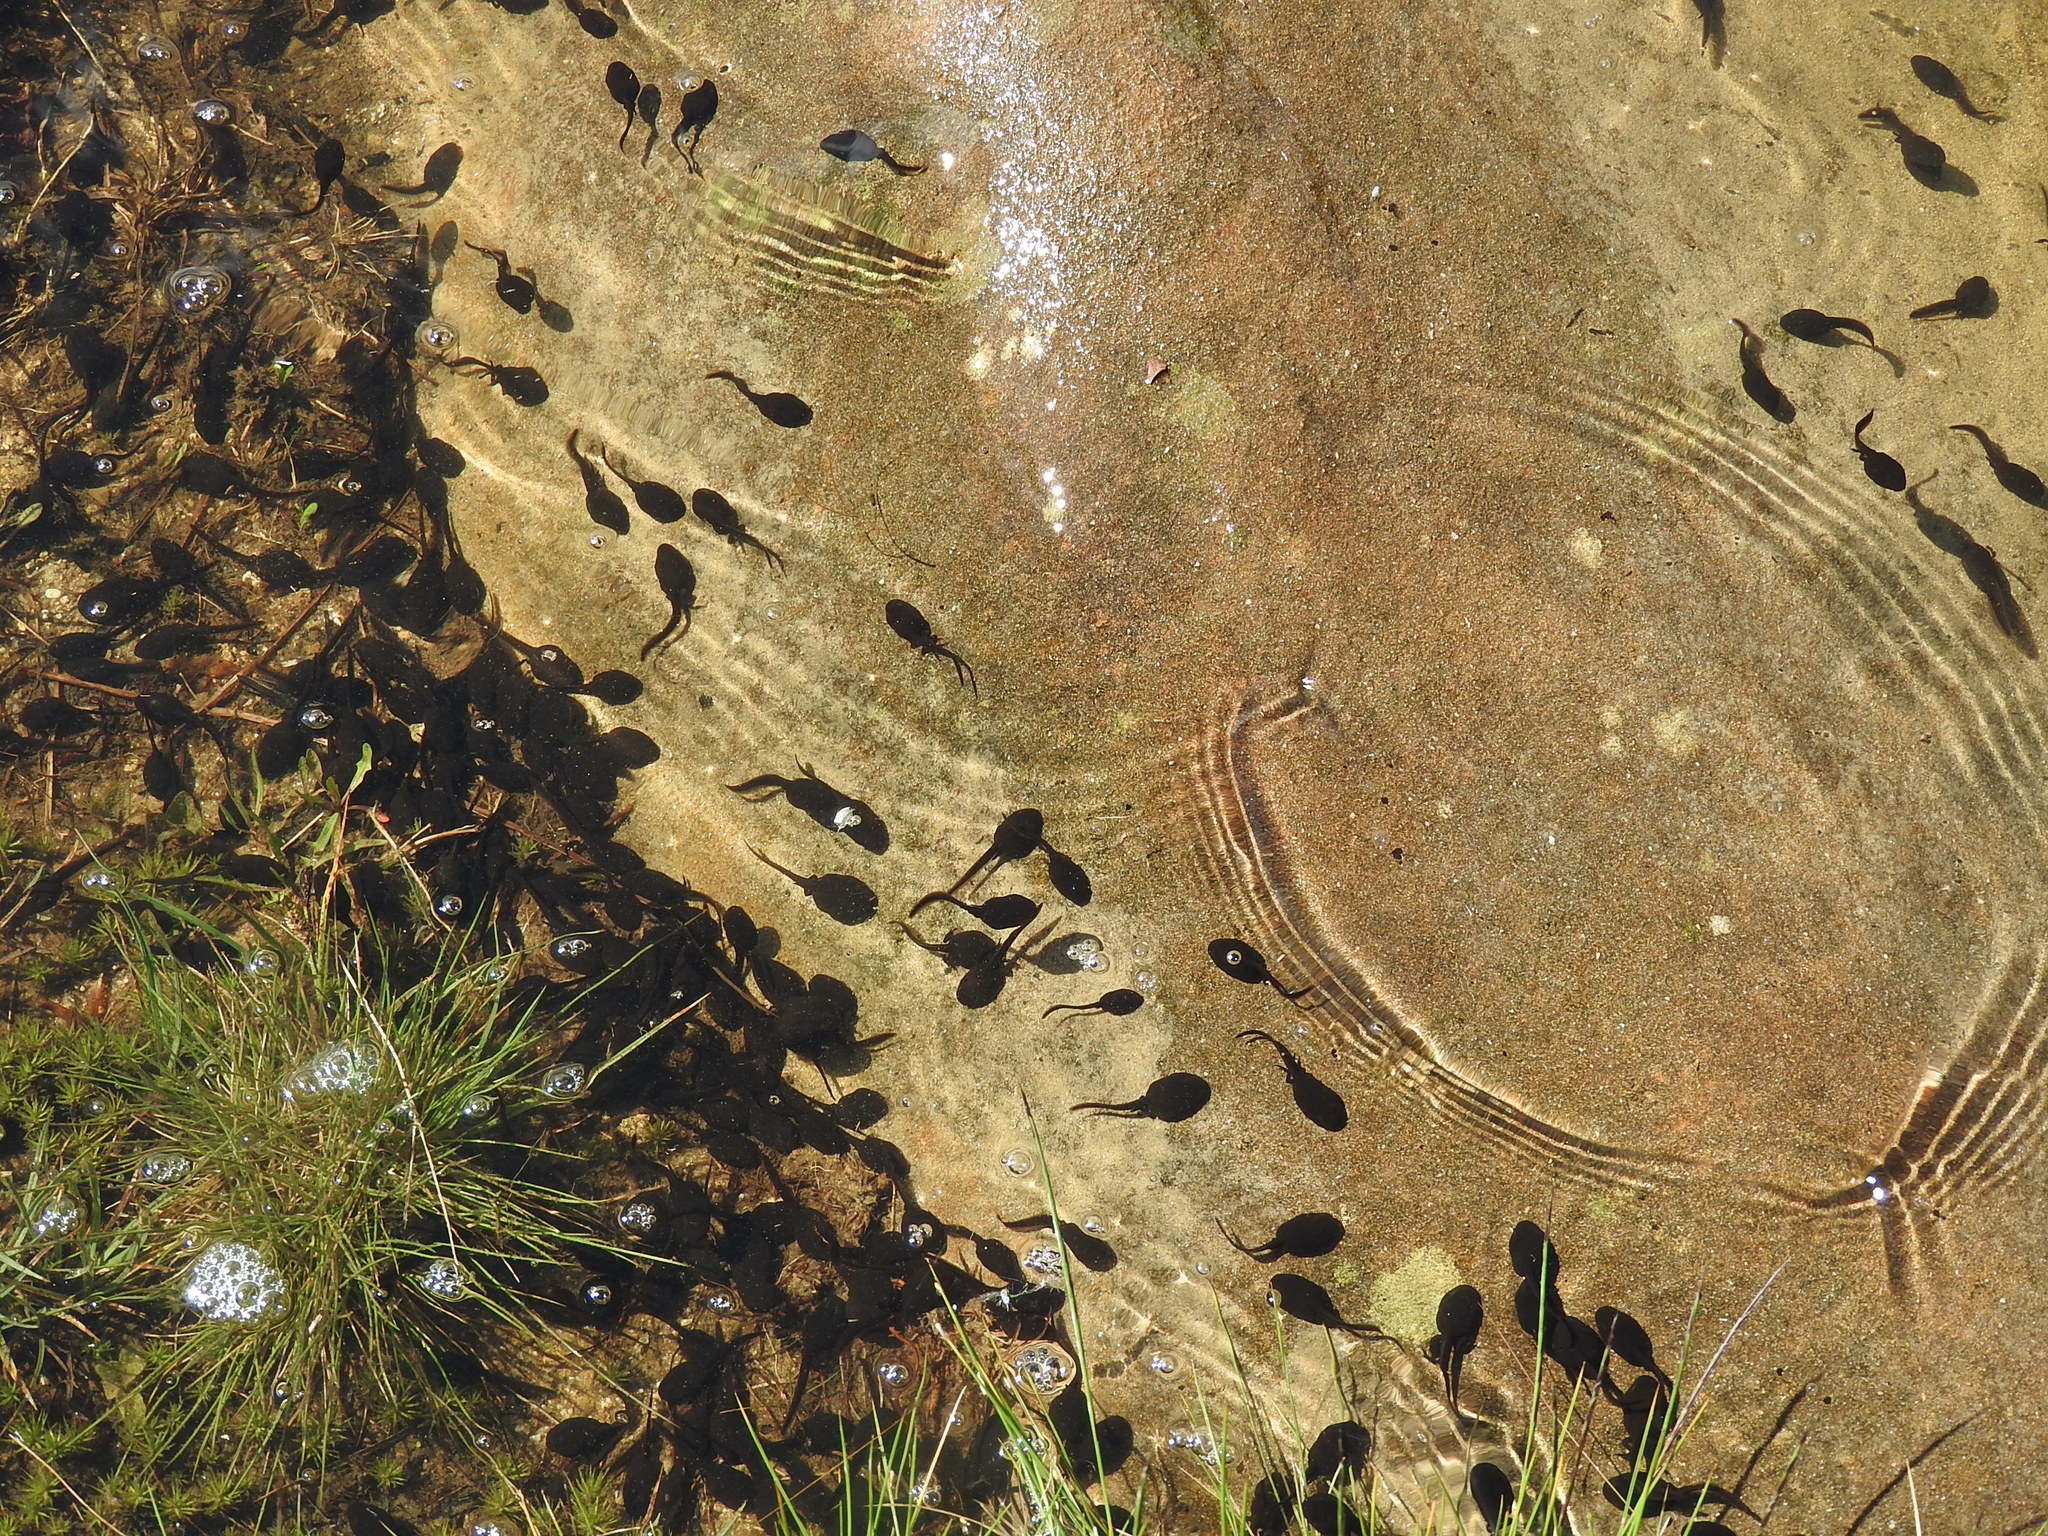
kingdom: Animalia
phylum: Chordata
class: Amphibia
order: Anura
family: Bufonidae
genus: Bufo
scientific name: Bufo bufo
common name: Common toad
